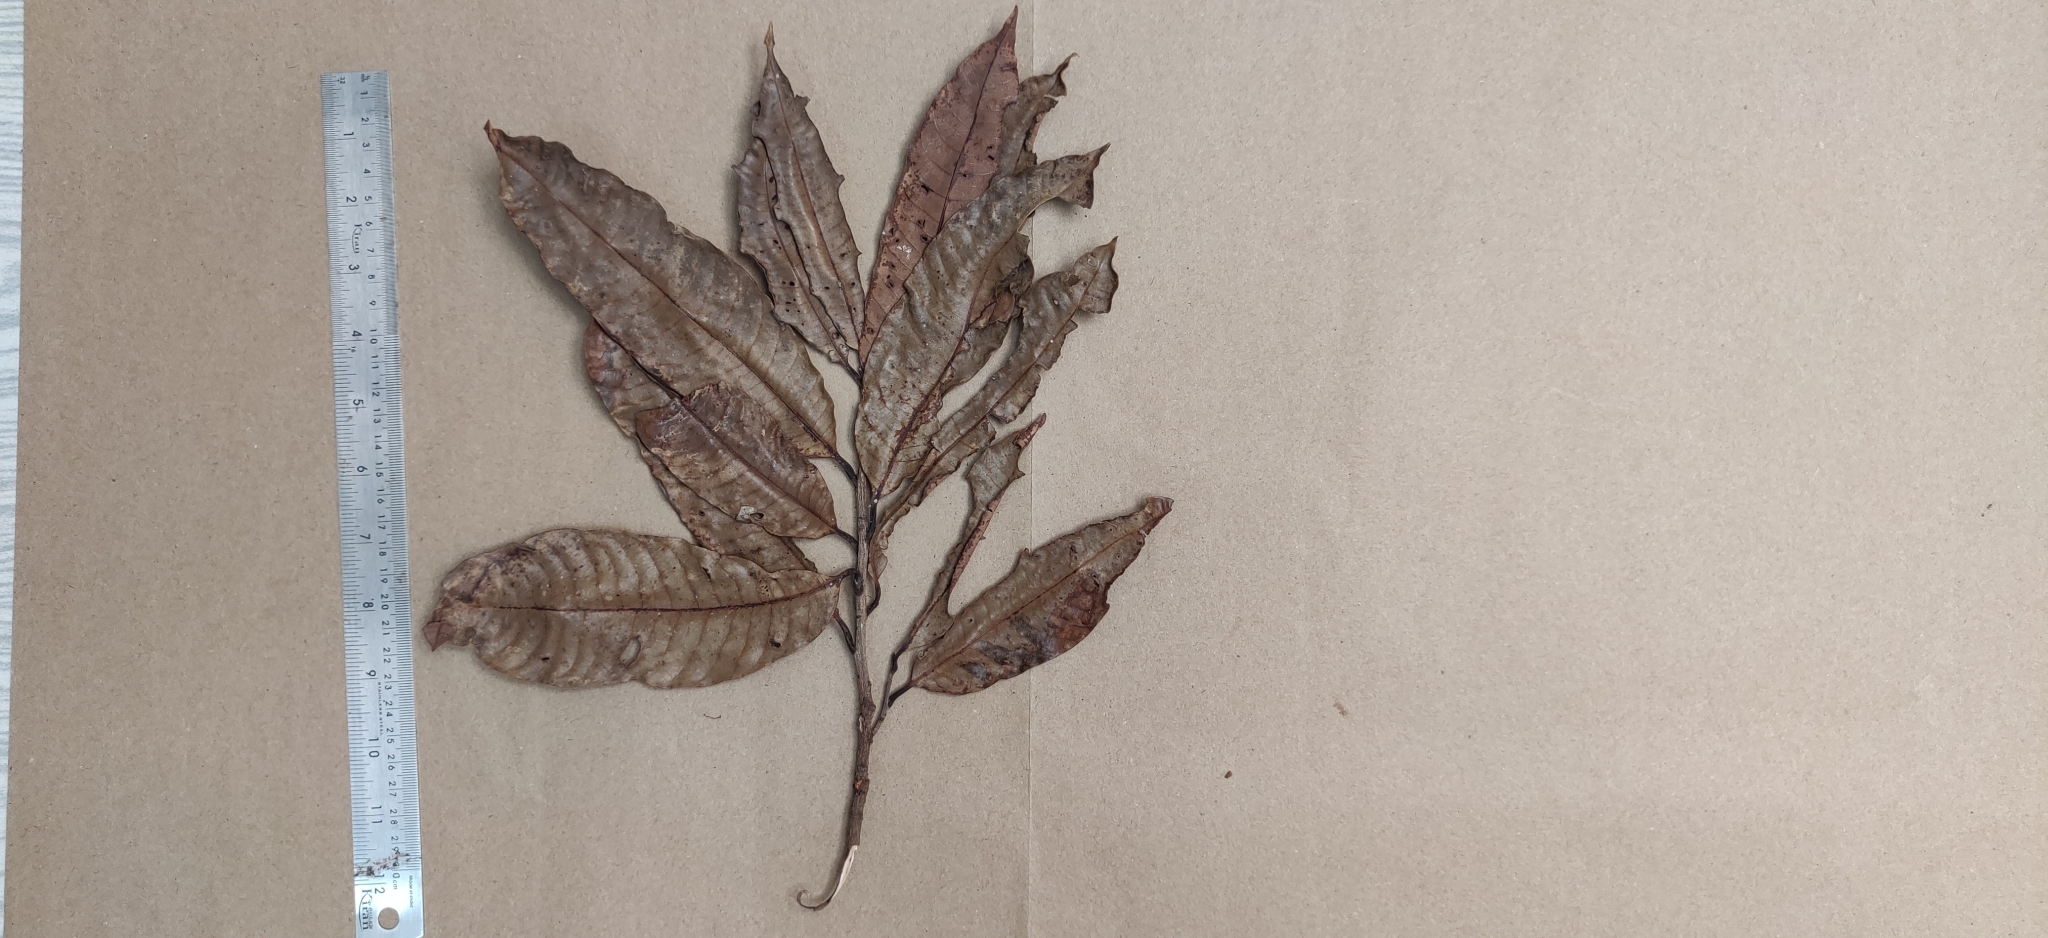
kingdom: Plantae
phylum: Tracheophyta
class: Magnoliopsida
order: Sapindales
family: Anacardiaceae
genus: Nothopegia
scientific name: Nothopegia castaneifolia
